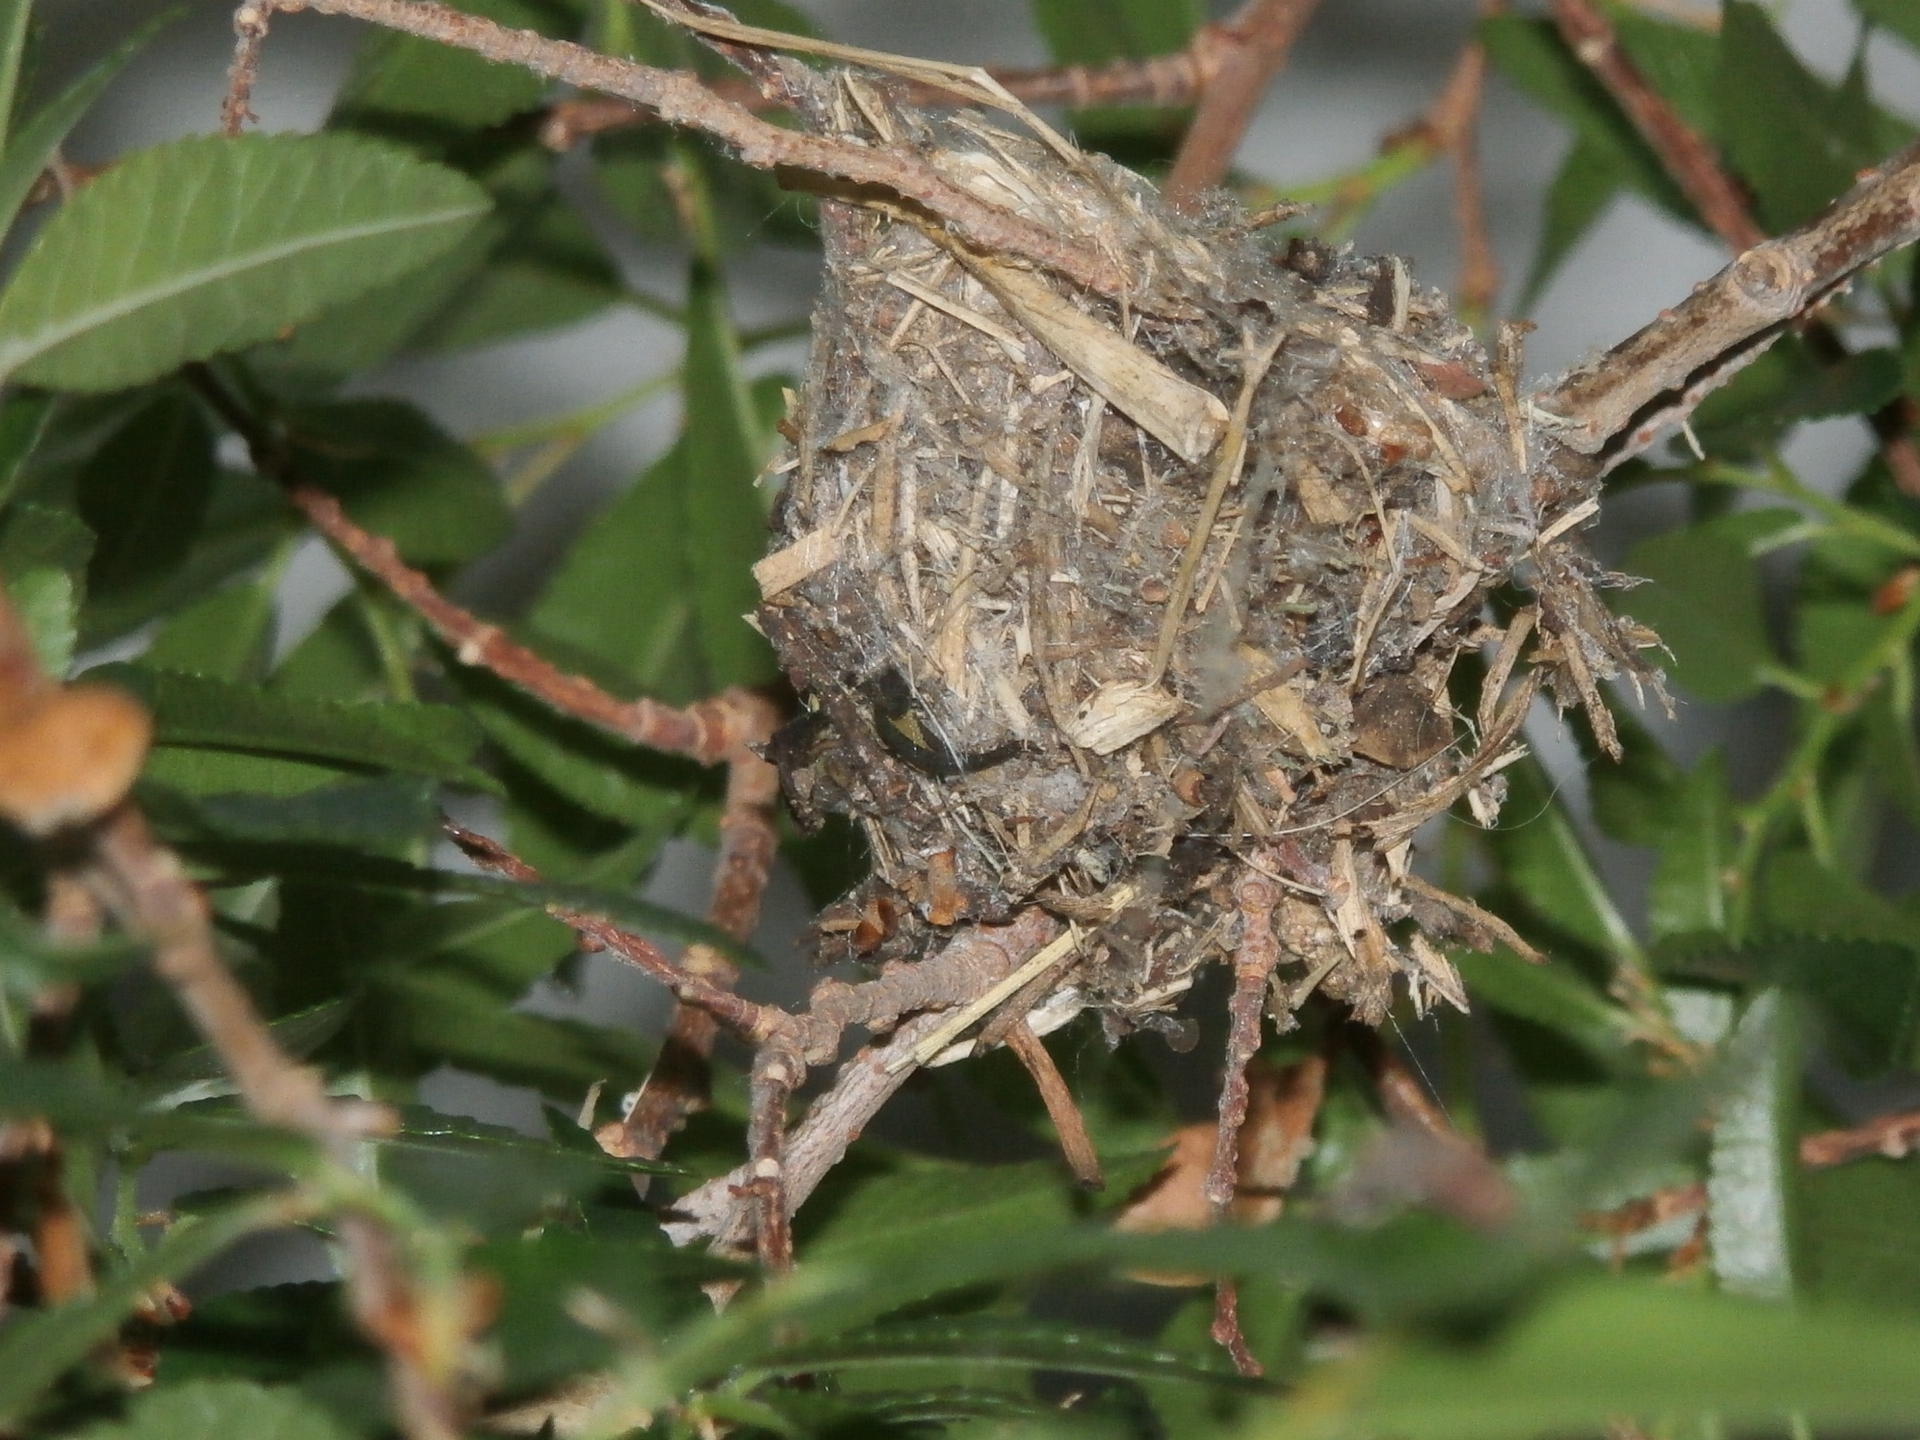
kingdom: Animalia
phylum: Chordata
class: Aves
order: Apodiformes
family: Trochilidae
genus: Selasphorus
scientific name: Selasphorus sasin
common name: Allen's hummingbird
